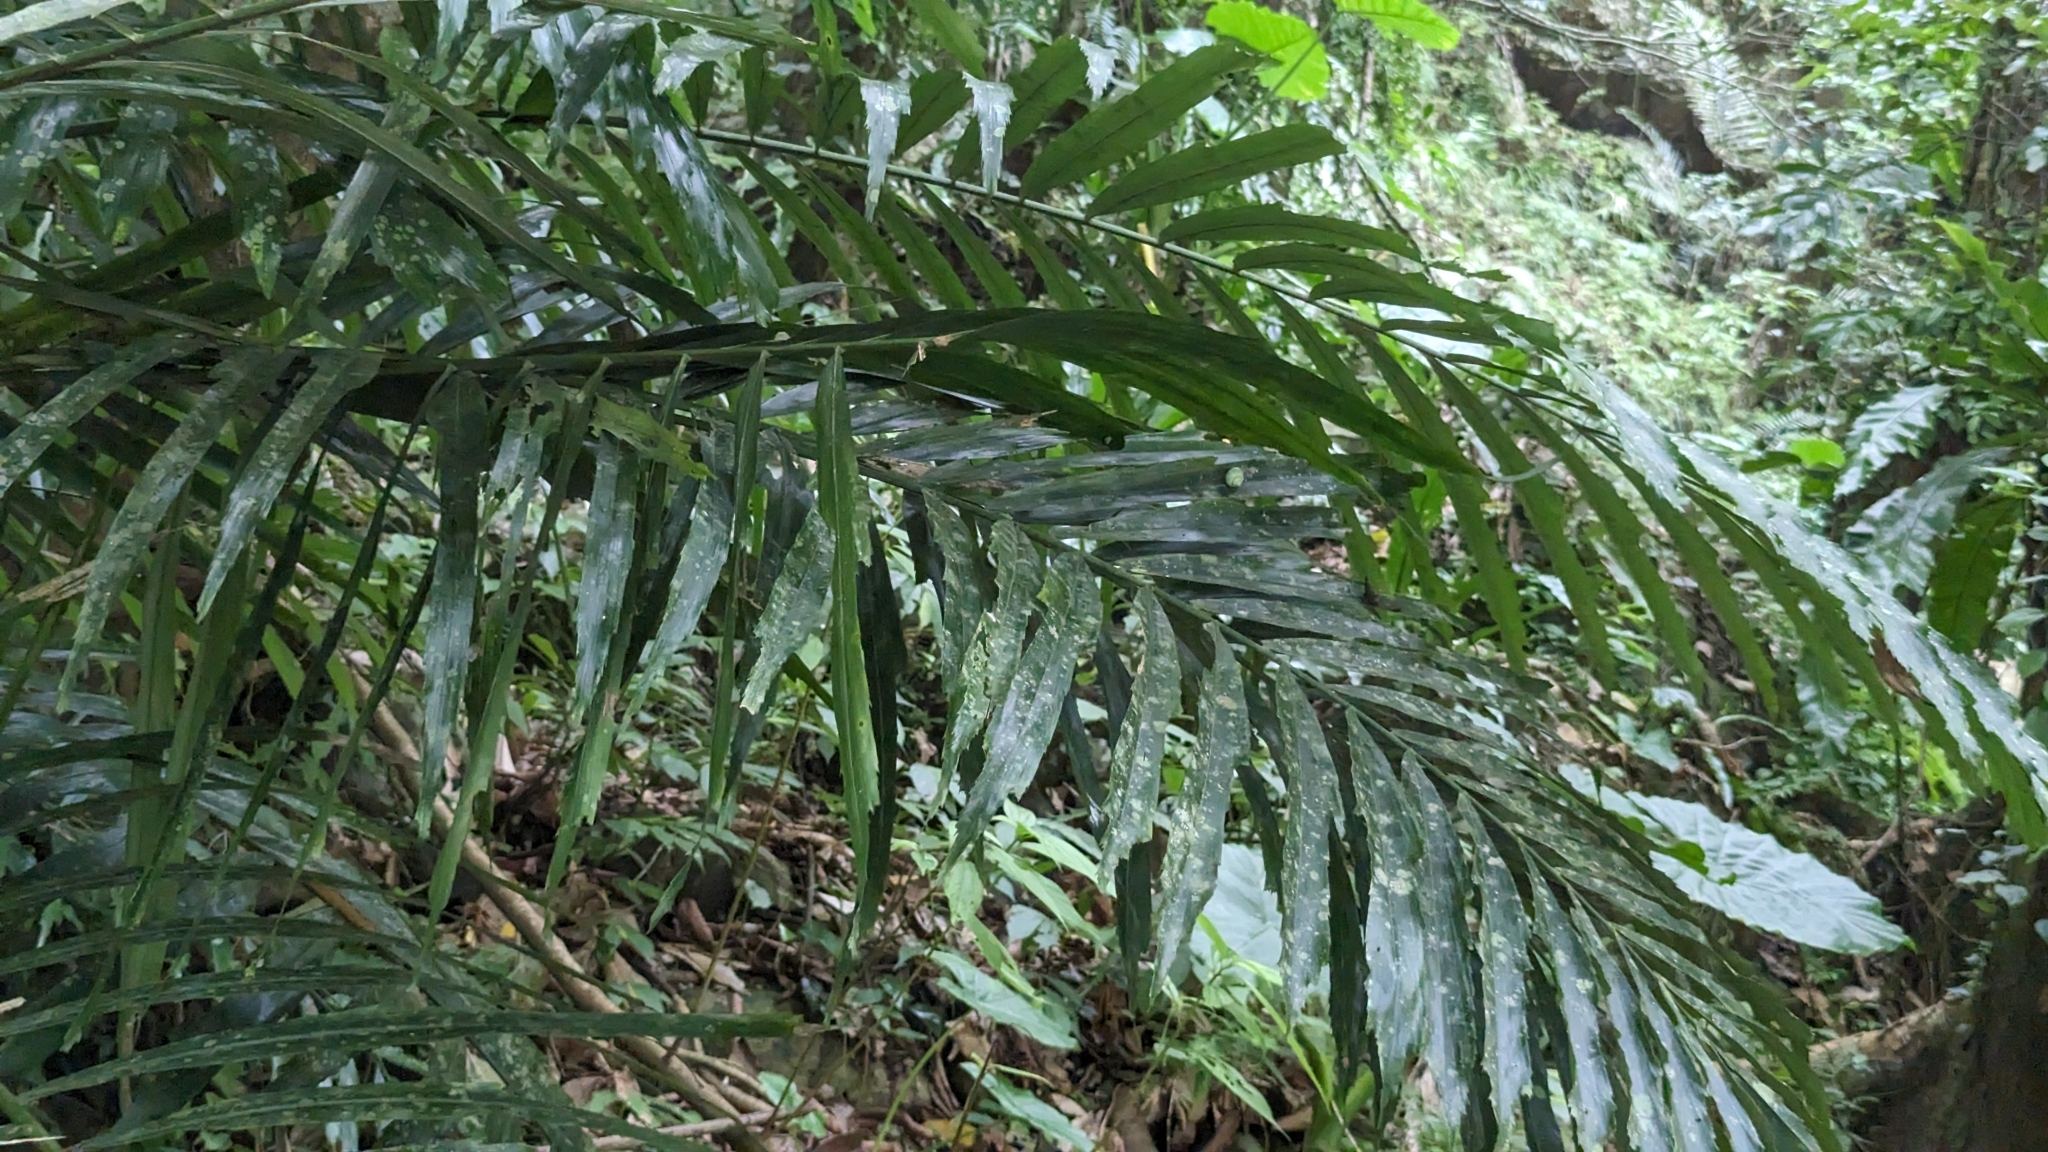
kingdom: Plantae
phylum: Tracheophyta
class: Liliopsida
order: Arecales
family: Arecaceae
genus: Arenga
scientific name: Arenga engleri
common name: Formosan sugar palm
